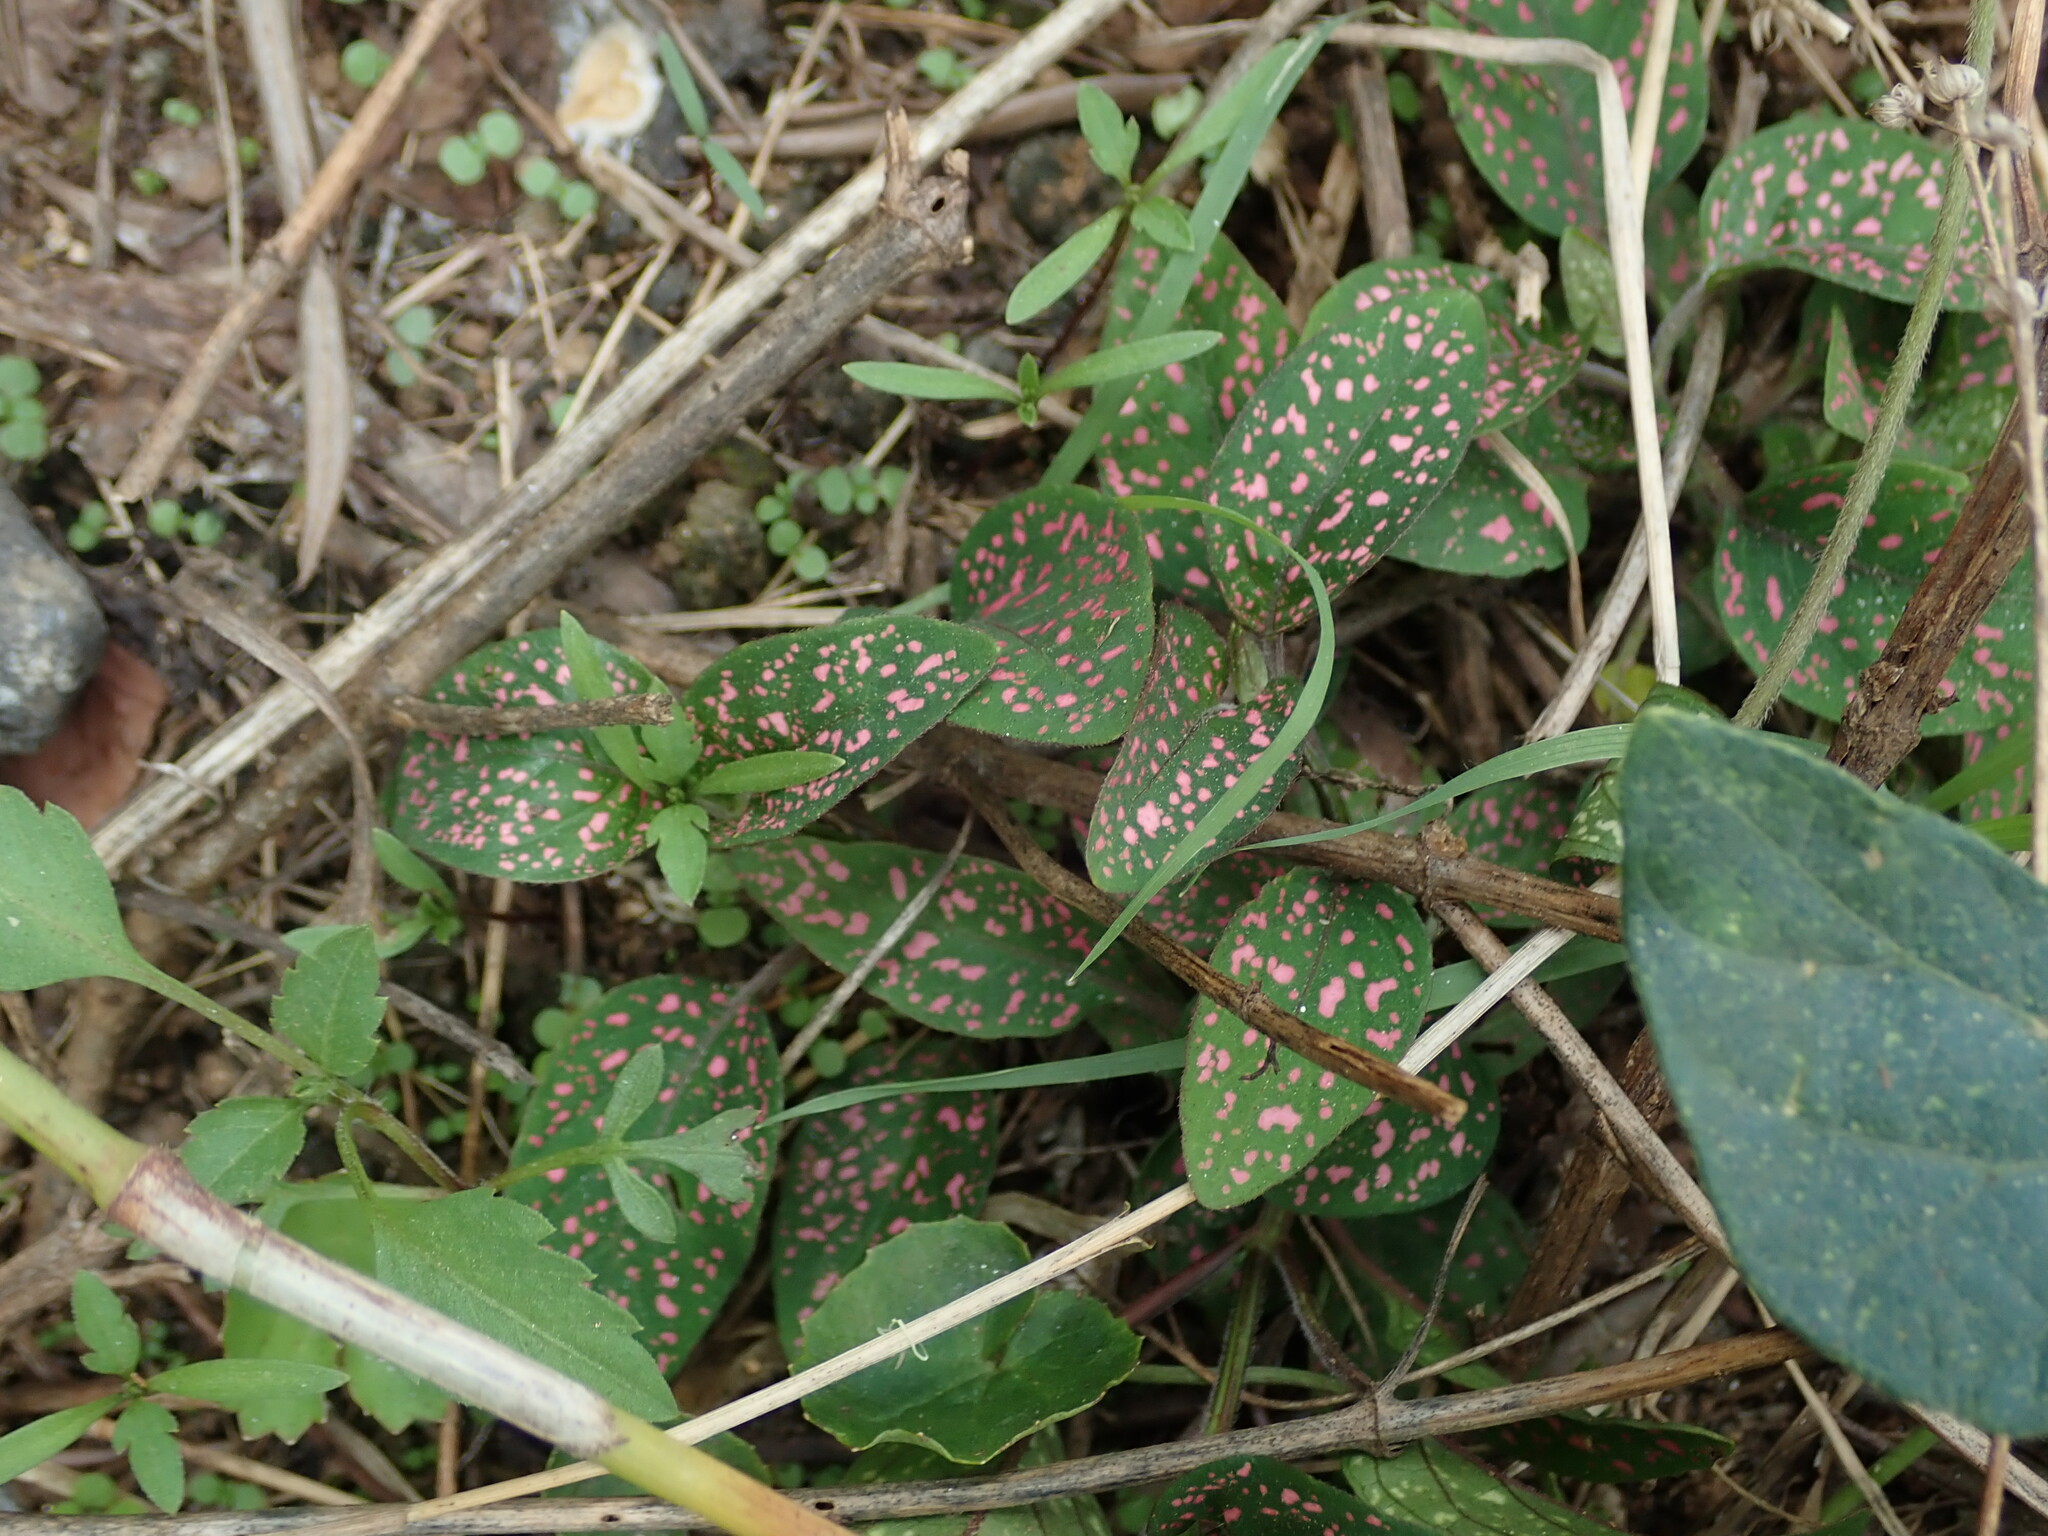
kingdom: Plantae
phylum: Tracheophyta
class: Magnoliopsida
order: Lamiales
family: Acanthaceae
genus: Hypoestes
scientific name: Hypoestes phyllostachya
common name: Polkadot-plant
